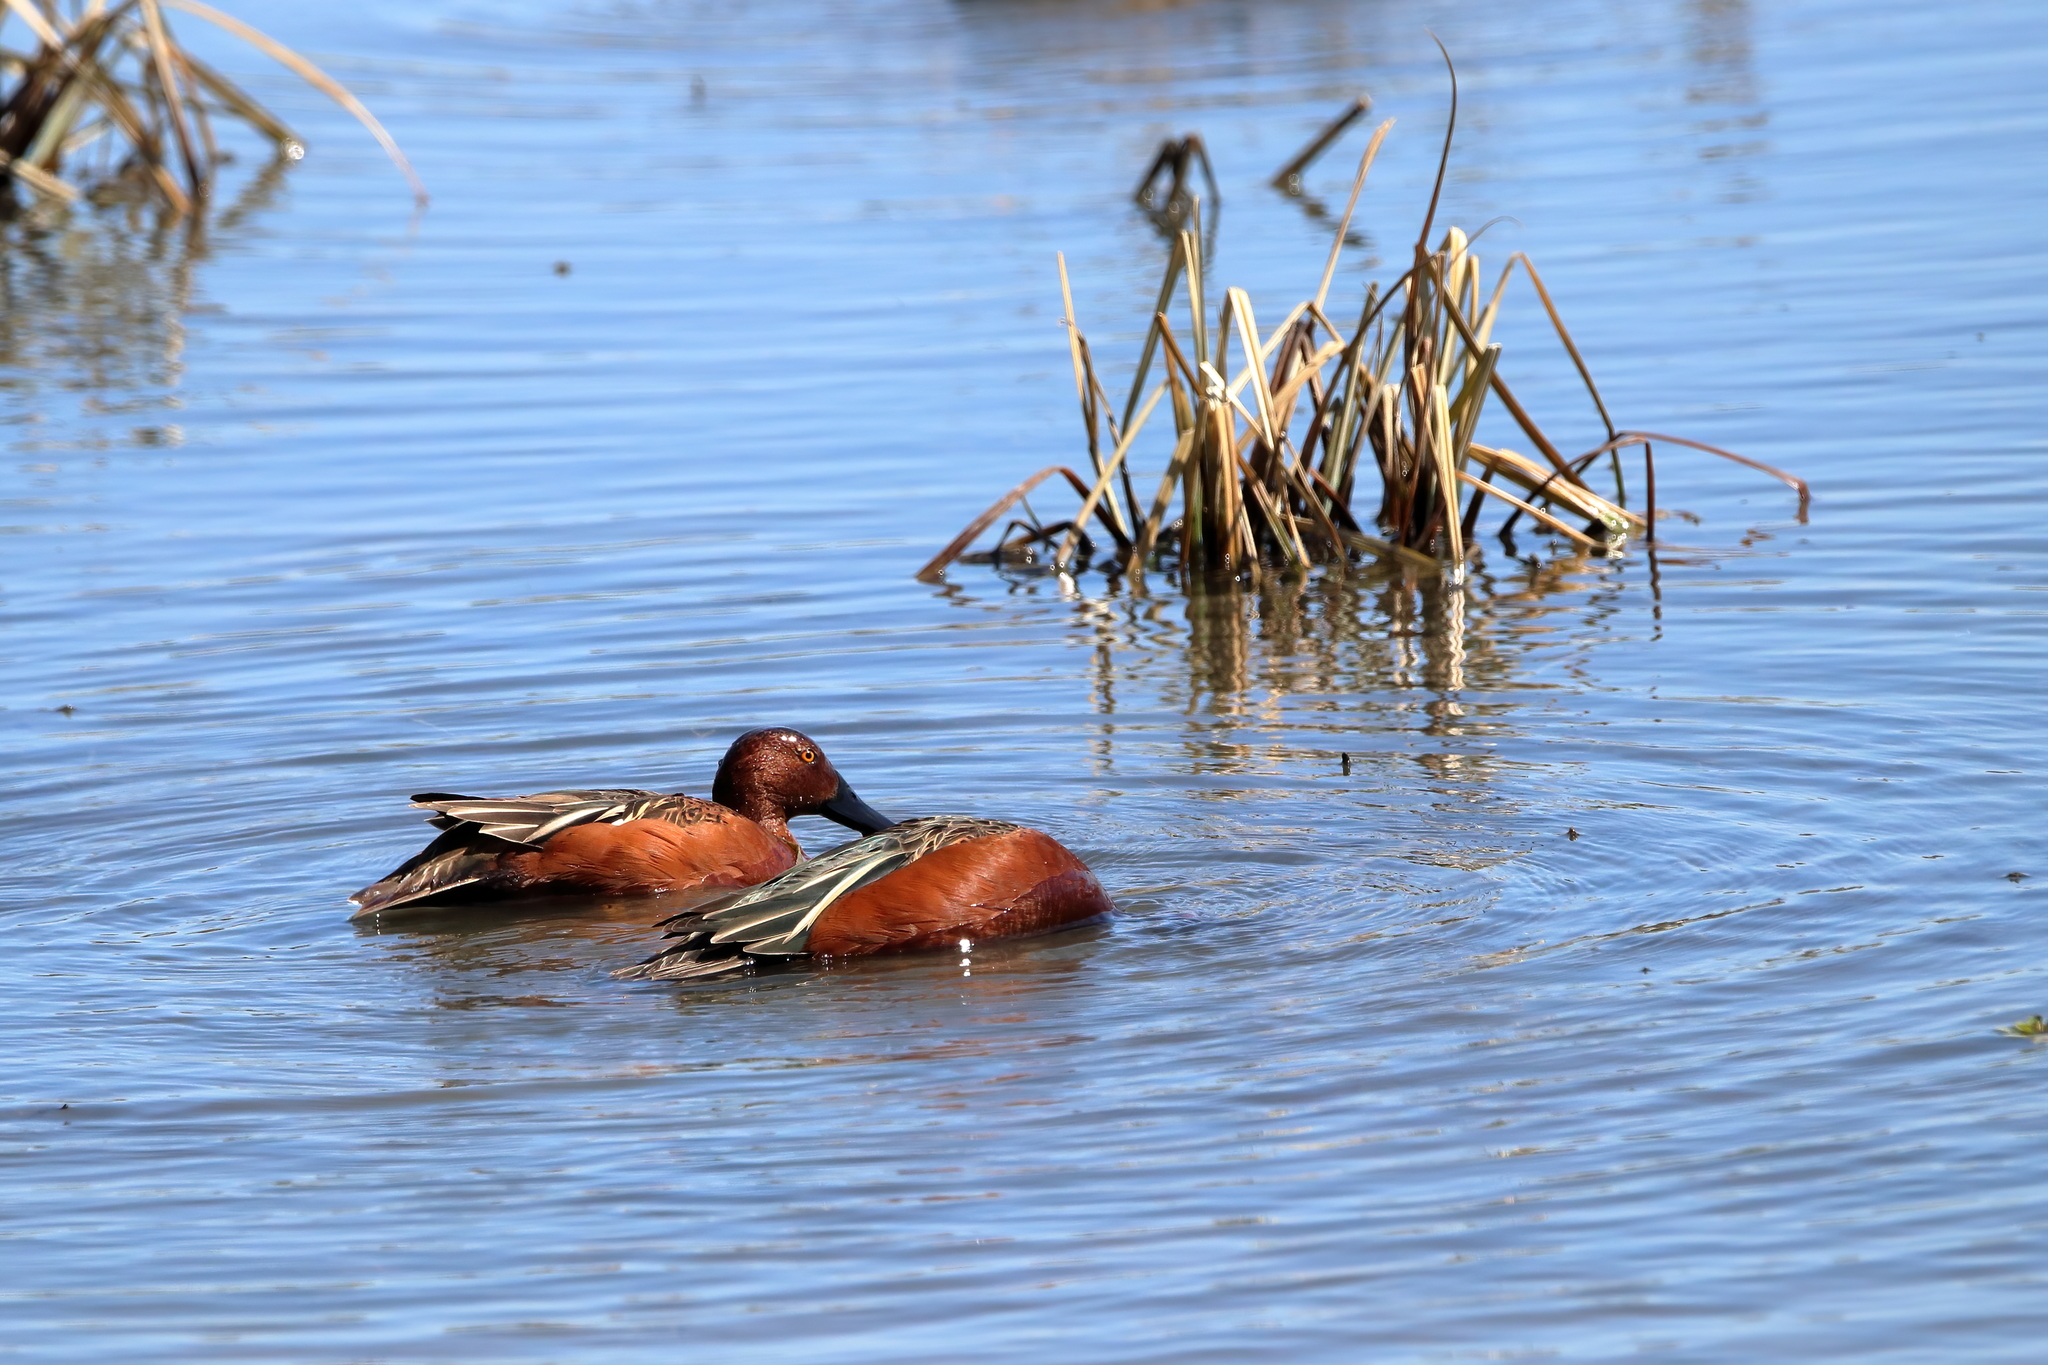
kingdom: Animalia
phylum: Chordata
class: Aves
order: Anseriformes
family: Anatidae
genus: Spatula
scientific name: Spatula cyanoptera
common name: Cinnamon teal
